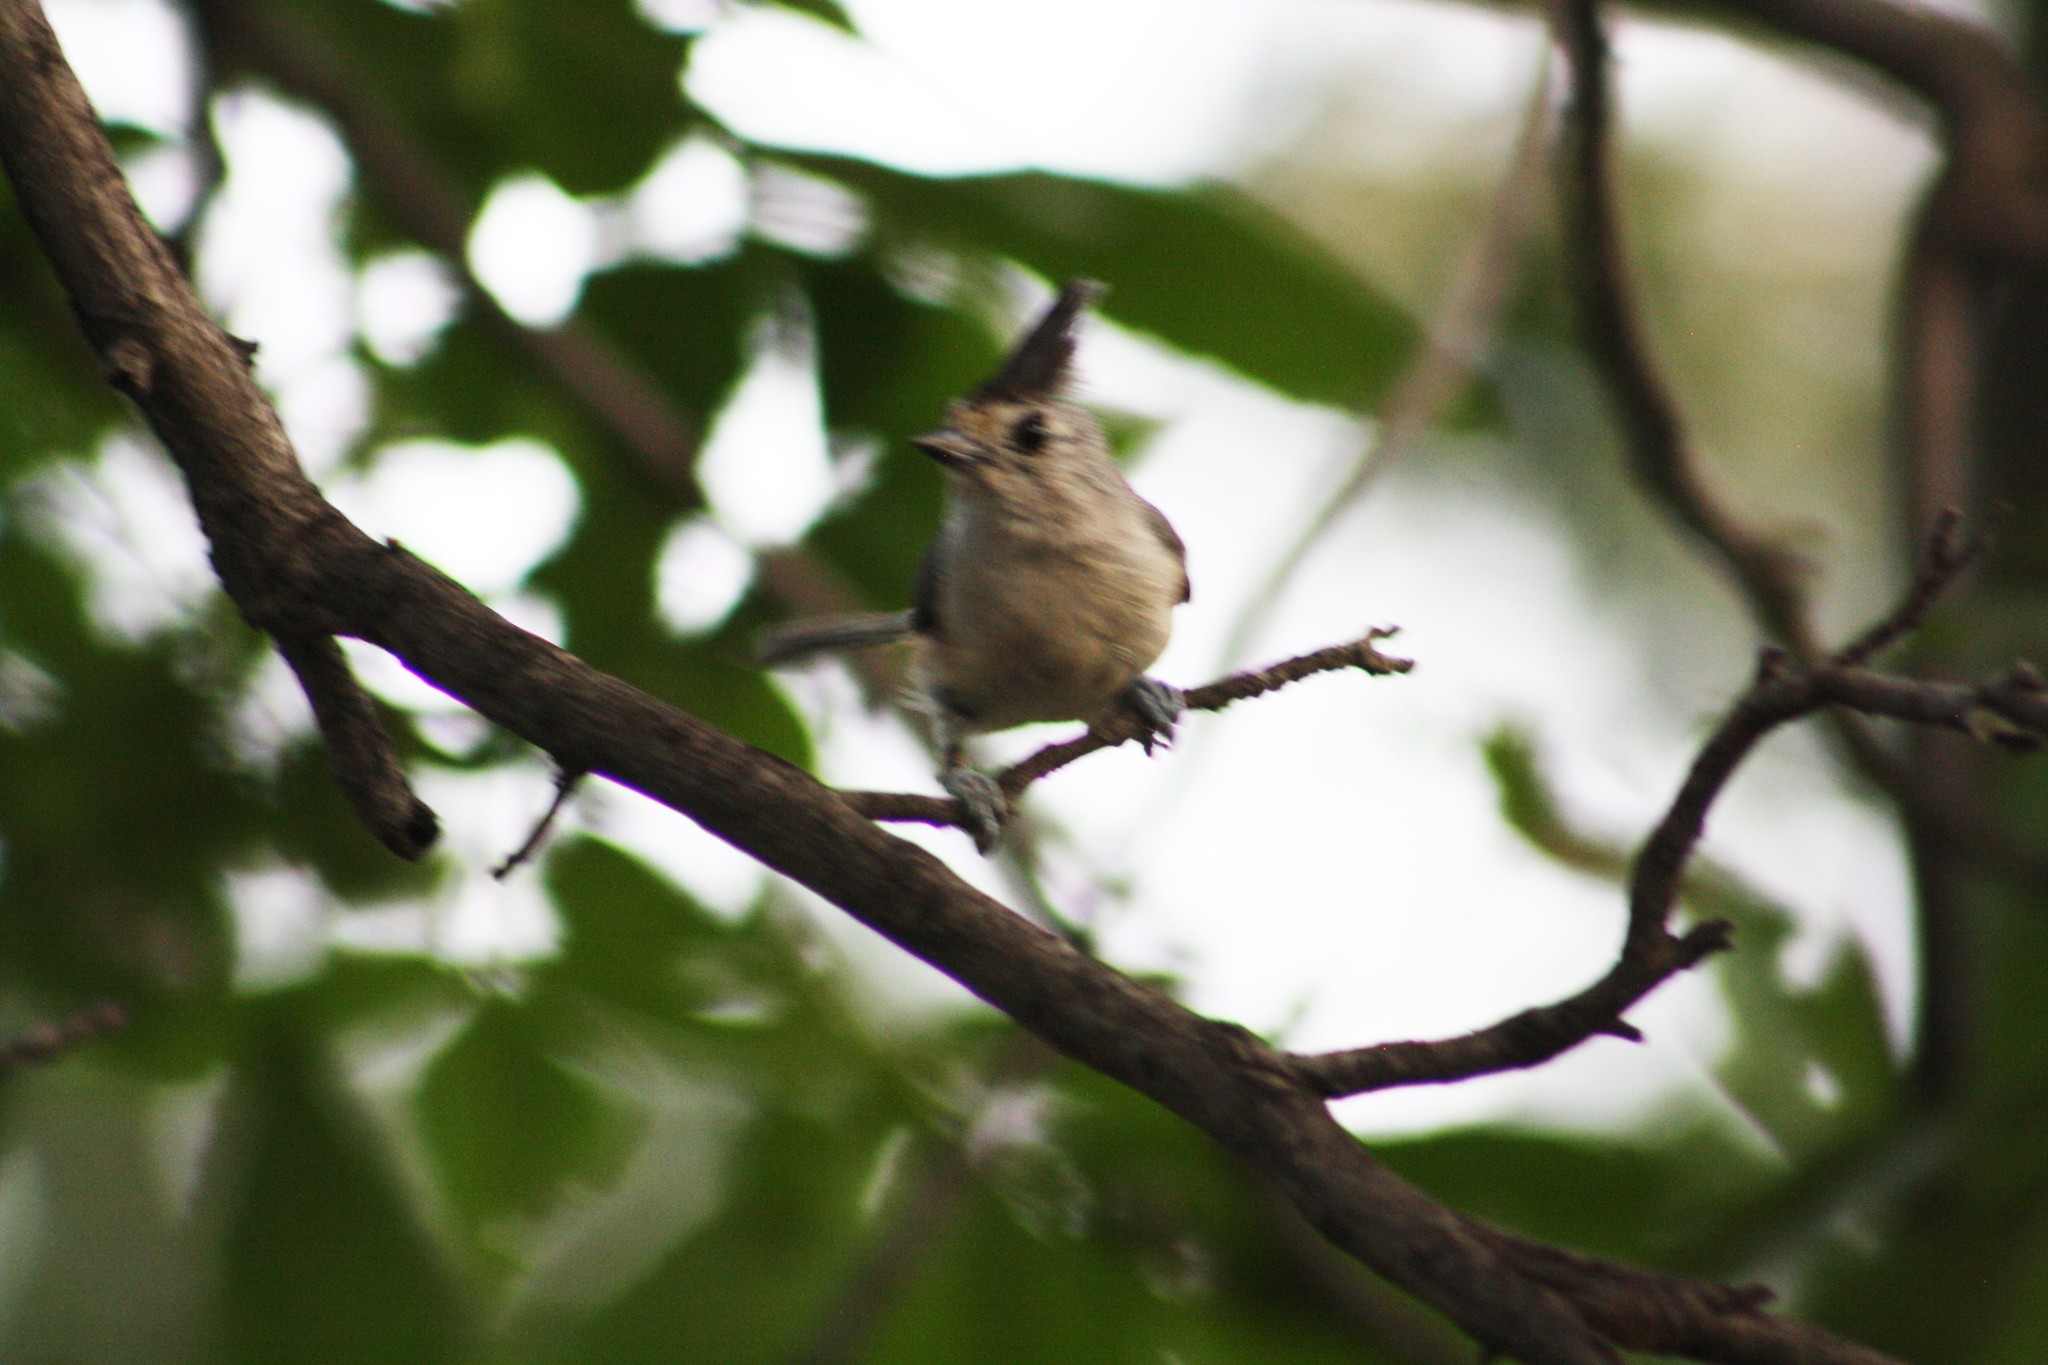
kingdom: Animalia
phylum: Chordata
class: Aves
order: Passeriformes
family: Paridae
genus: Baeolophus
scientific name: Baeolophus atricristatus
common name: Black-crested titmouse
